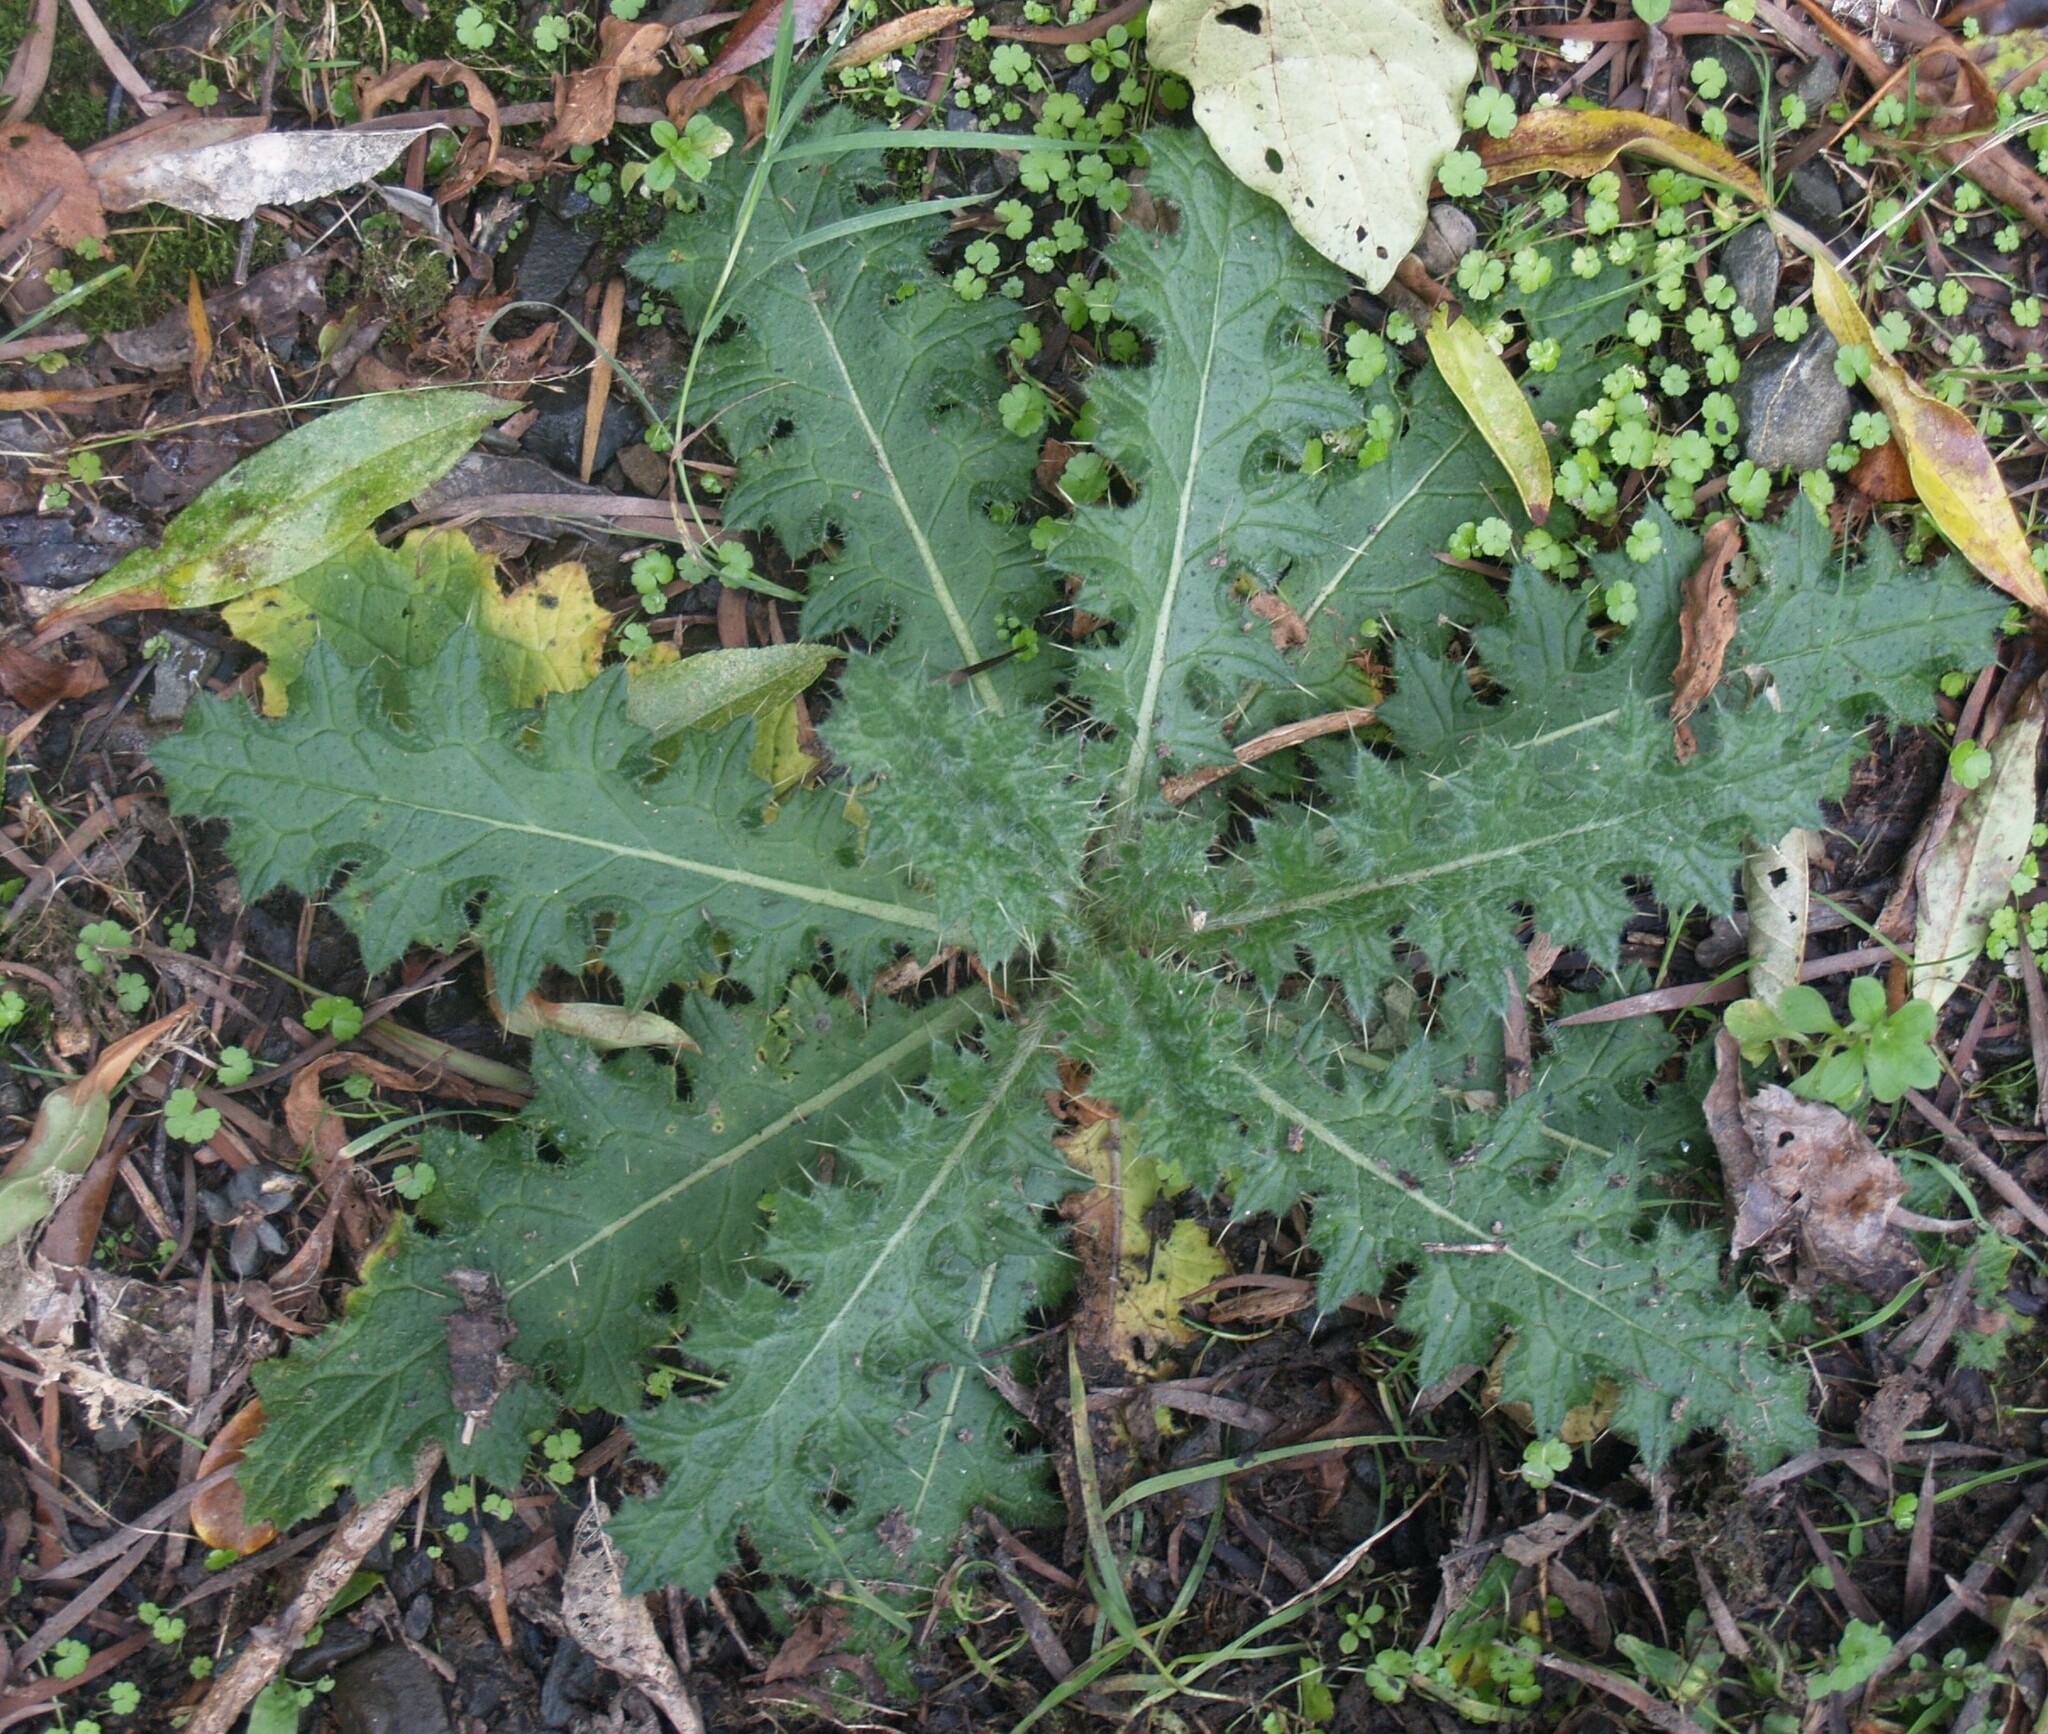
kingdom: Plantae
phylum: Tracheophyta
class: Magnoliopsida
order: Asterales
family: Asteraceae
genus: Cirsium
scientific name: Cirsium vulgare
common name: Bull thistle
